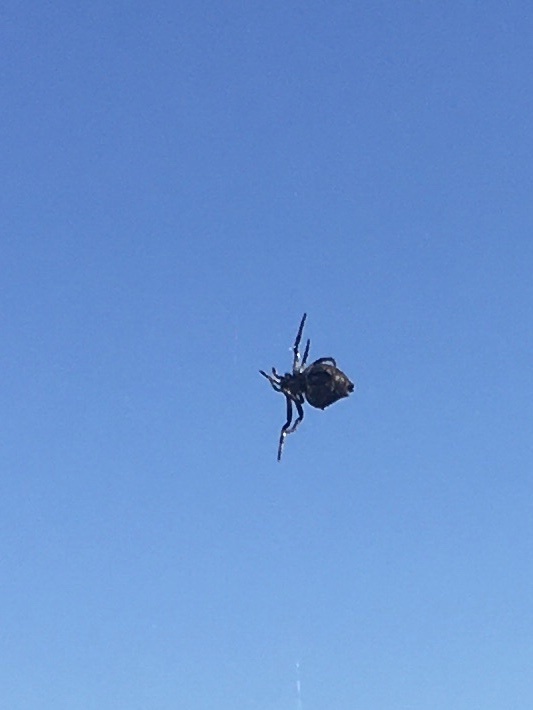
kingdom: Animalia
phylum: Arthropoda
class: Arachnida
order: Araneae
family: Araneidae
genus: Eriophora
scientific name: Eriophora pustulosa
